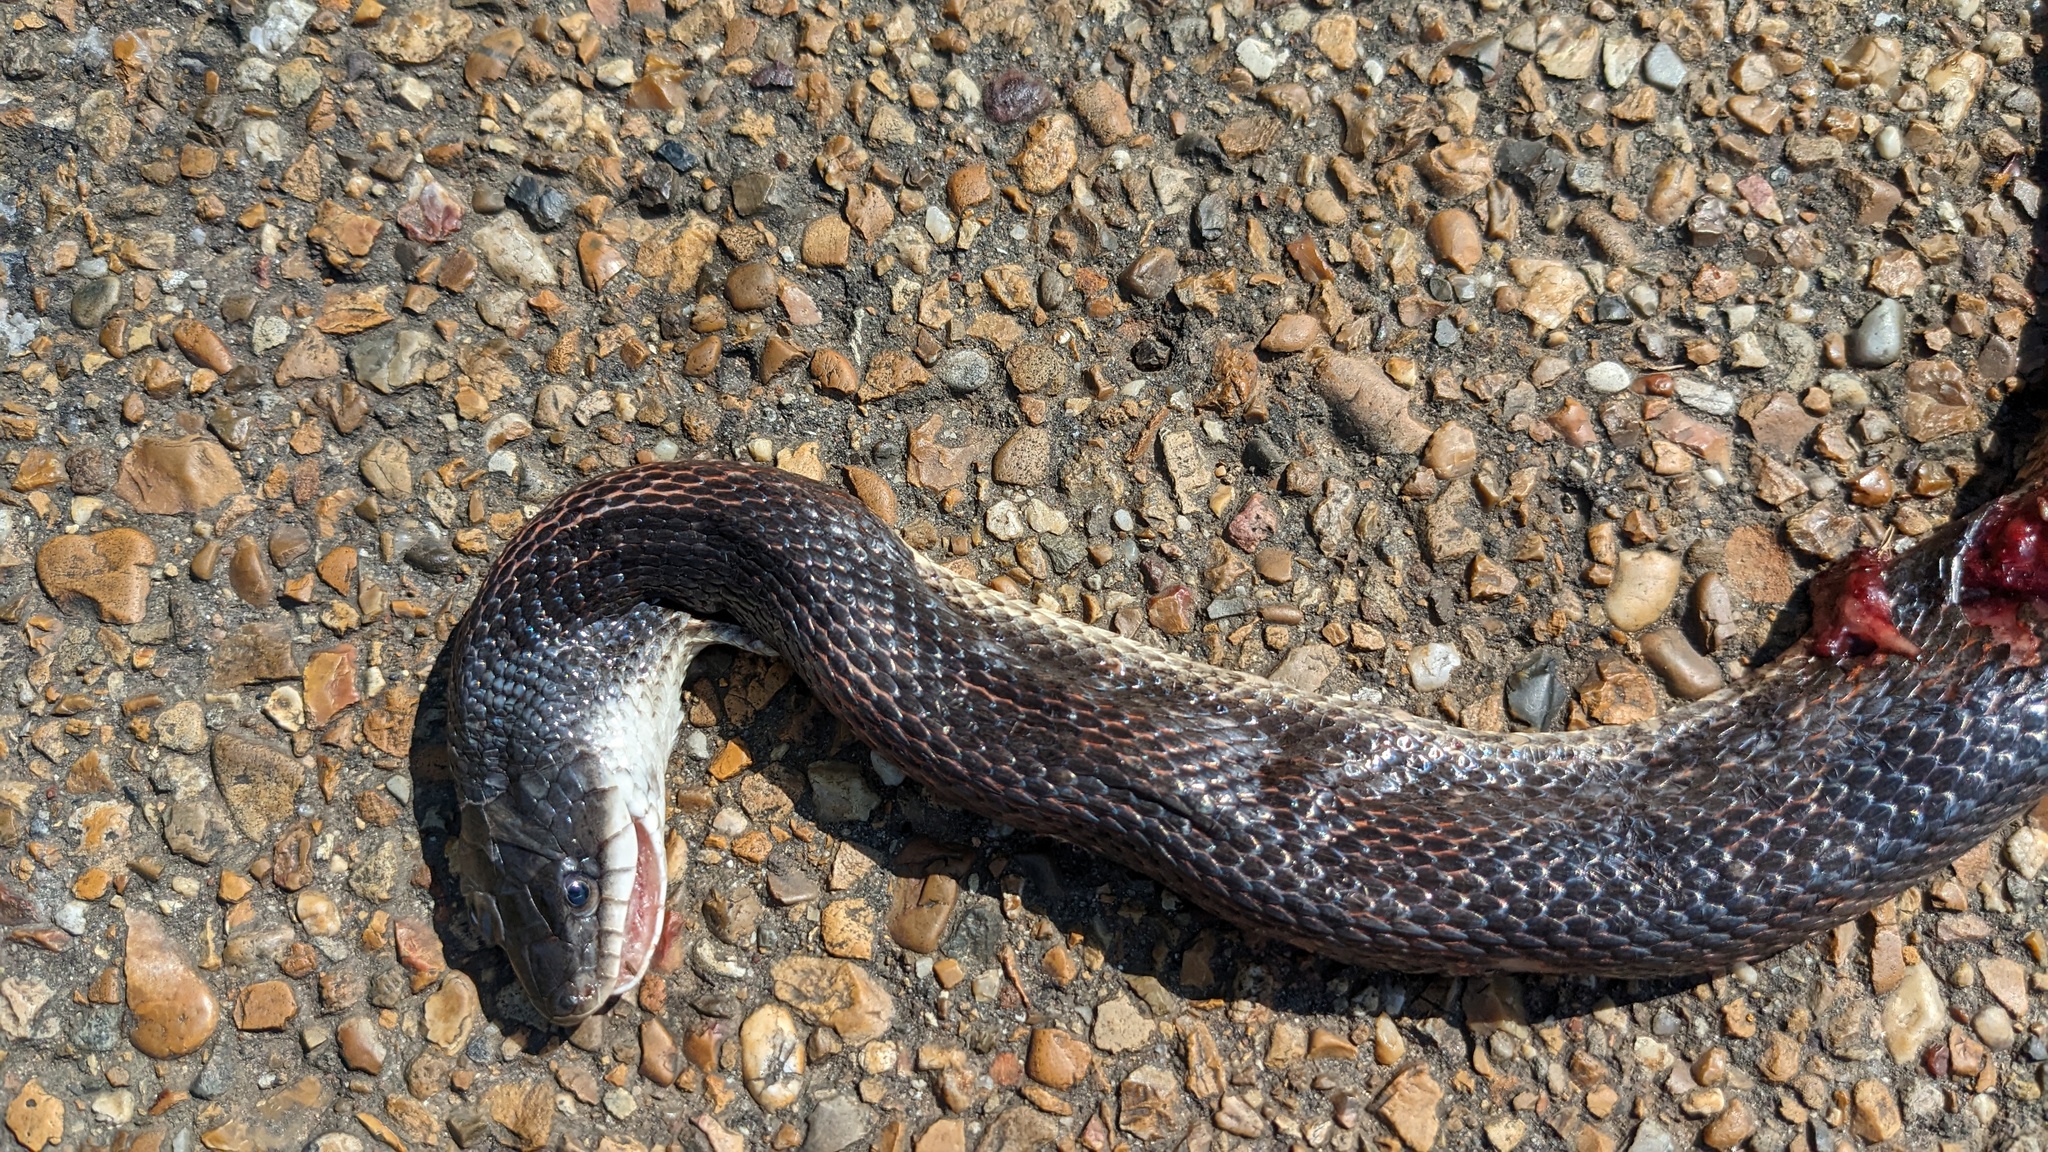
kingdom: Animalia
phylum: Chordata
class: Squamata
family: Colubridae
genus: Pantherophis
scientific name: Pantherophis obsoletus
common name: Black rat snake
